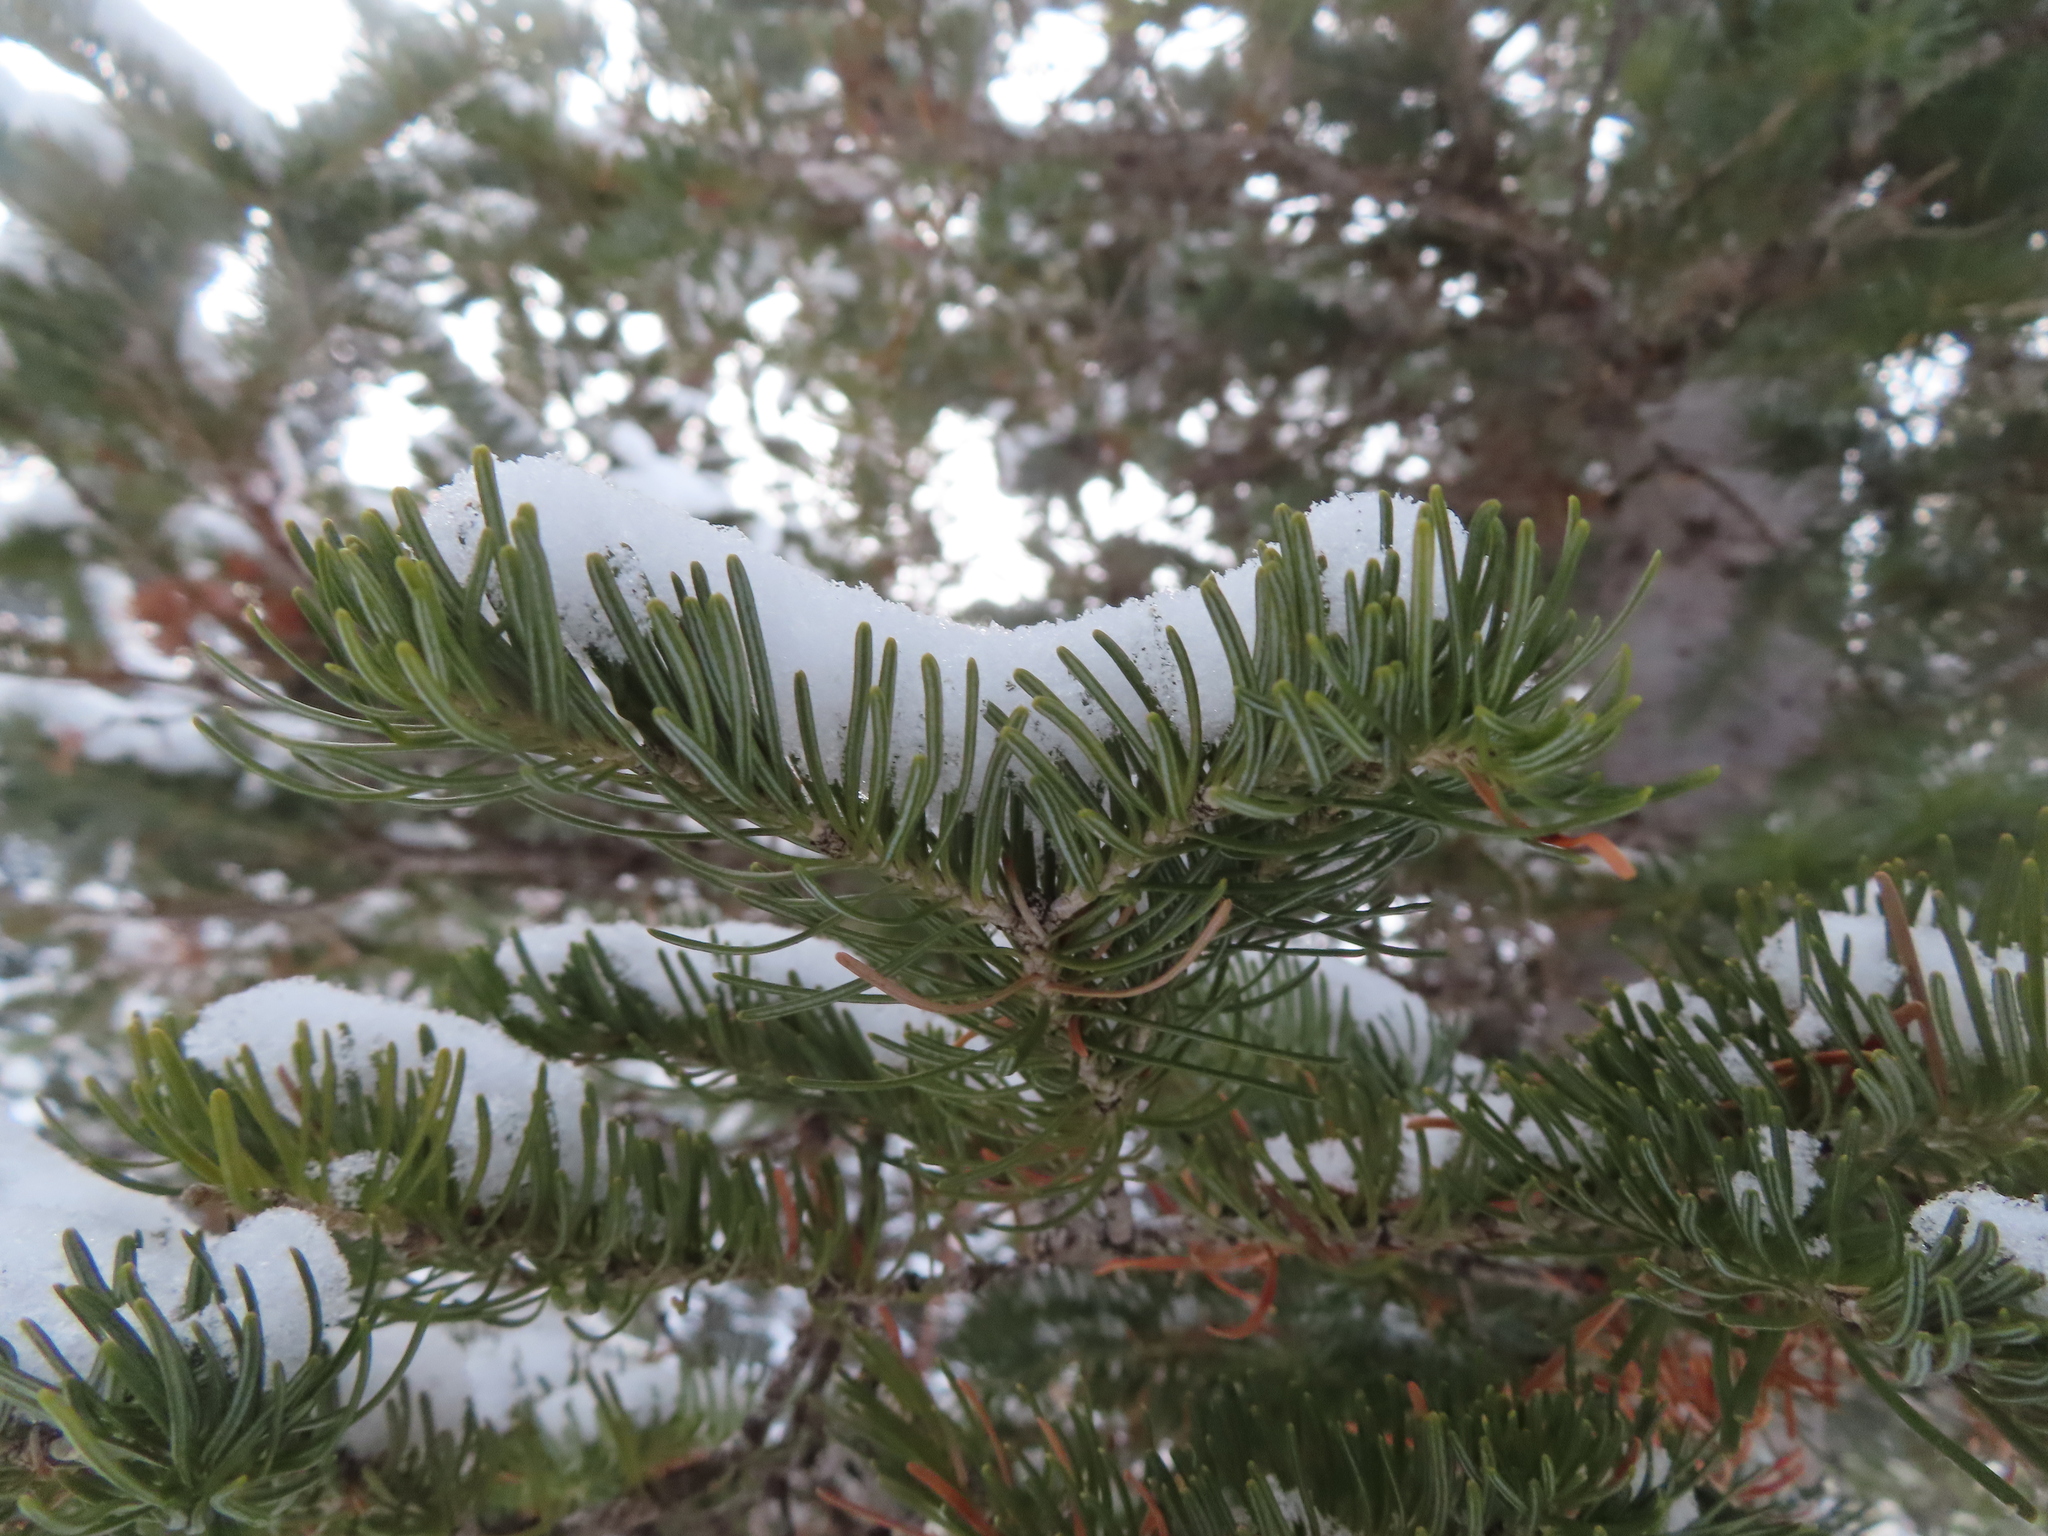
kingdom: Plantae
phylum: Tracheophyta
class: Pinopsida
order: Pinales
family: Pinaceae
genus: Abies
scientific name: Abies lasiocarpa
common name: Subalpine fir
